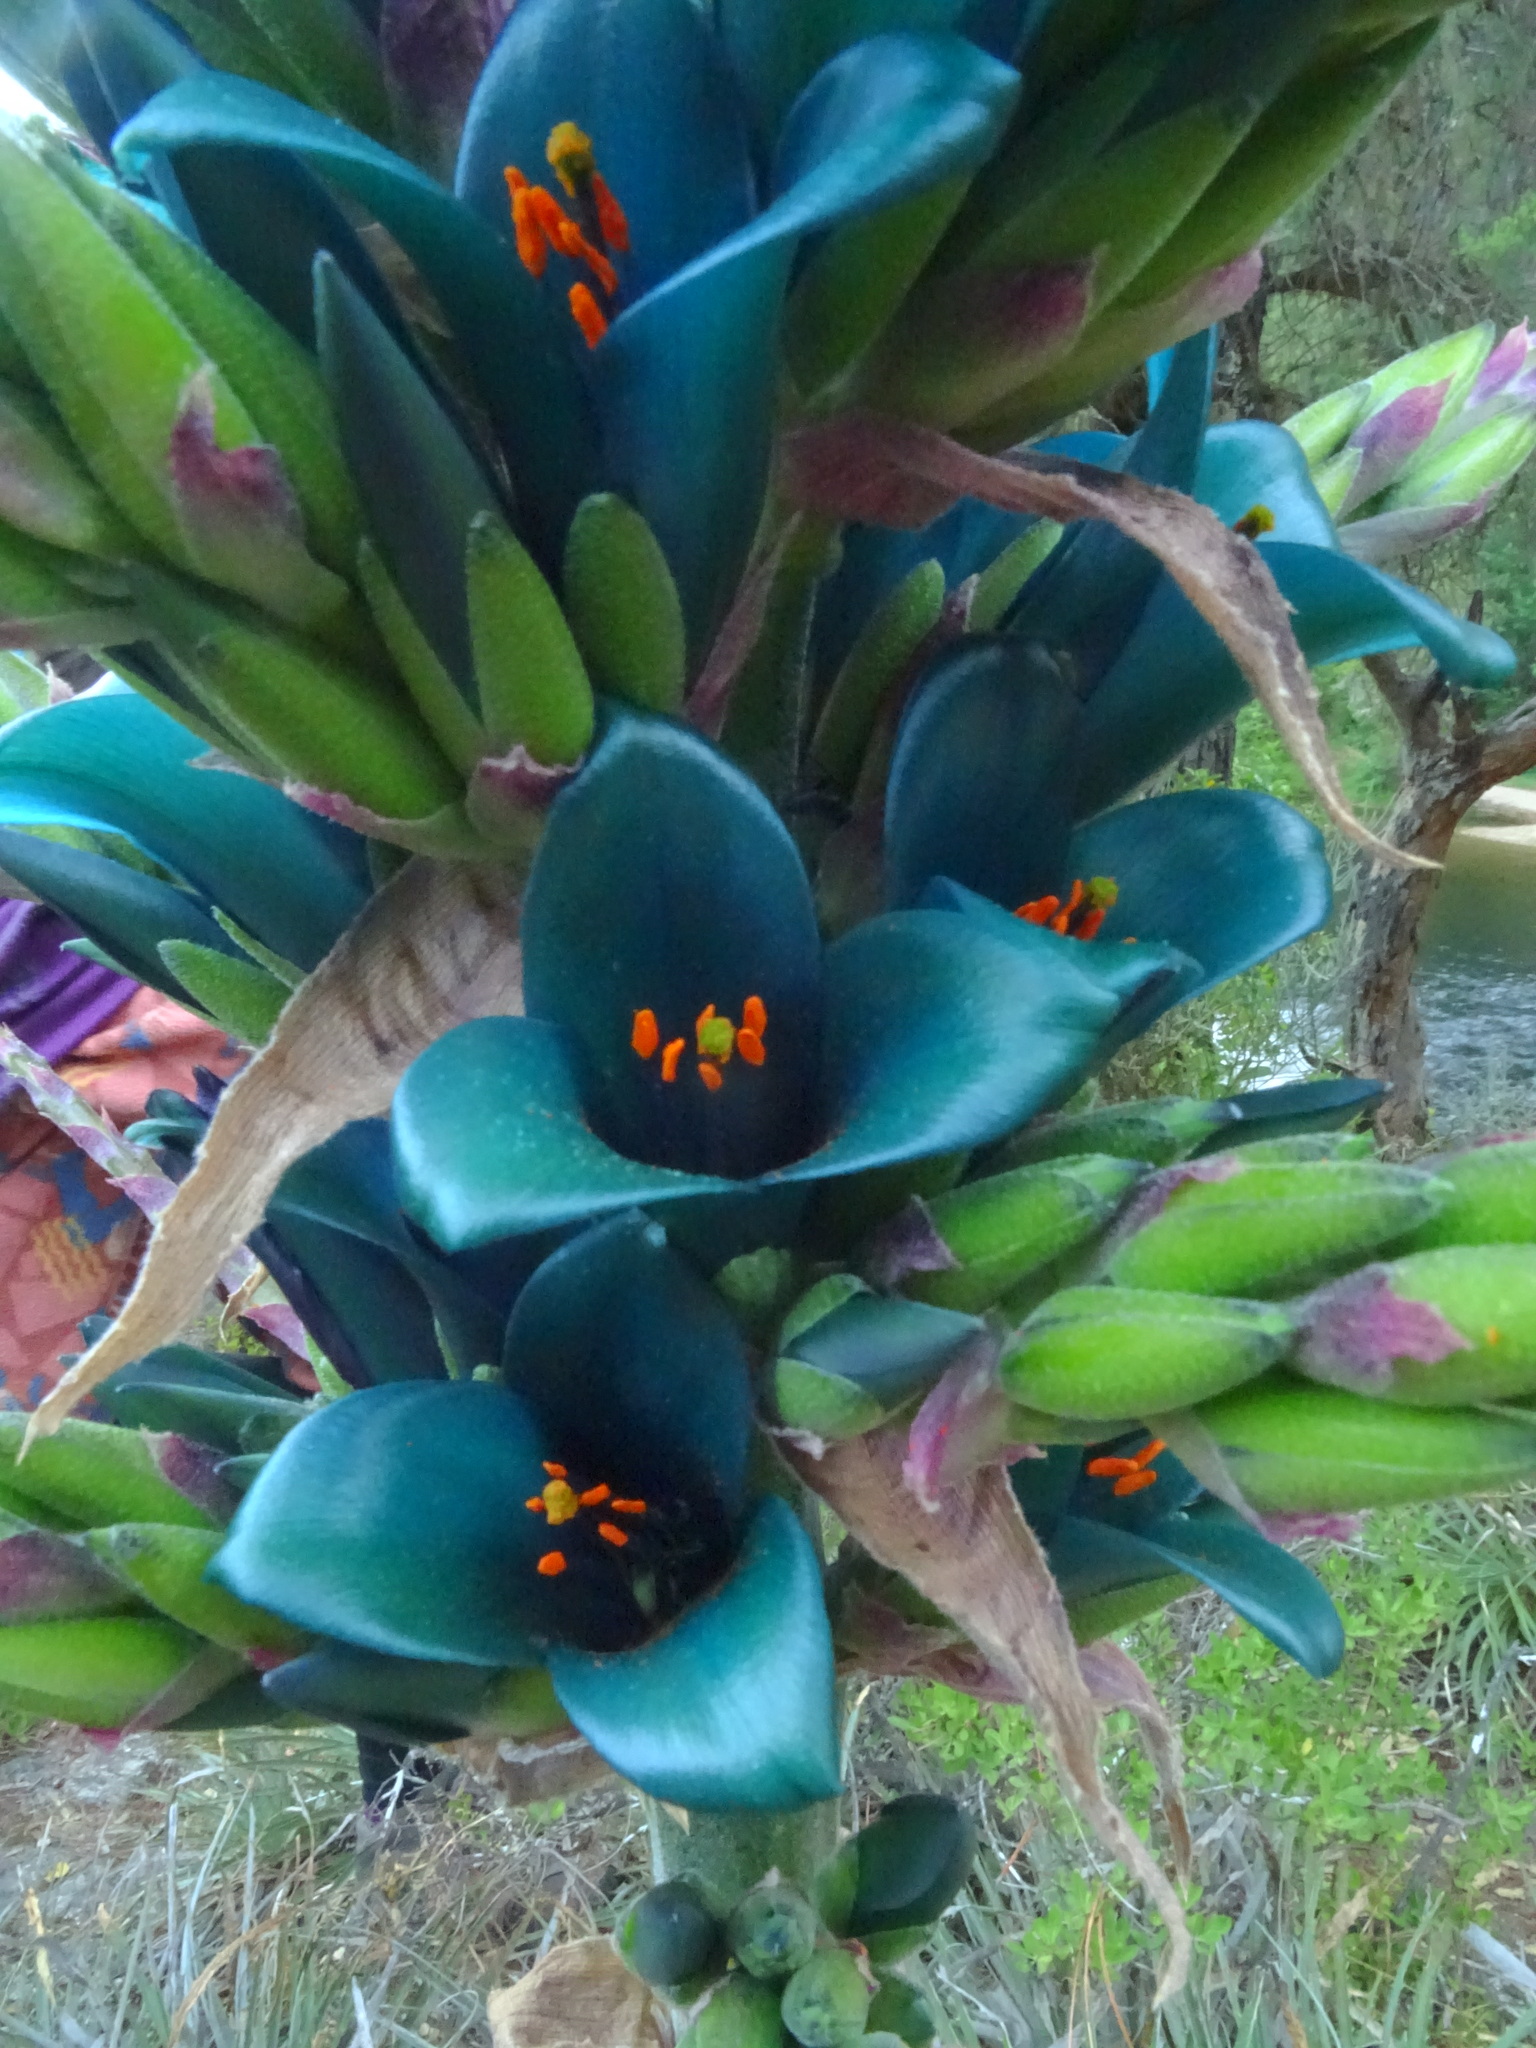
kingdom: Plantae
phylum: Tracheophyta
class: Liliopsida
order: Poales
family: Bromeliaceae
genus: Puya
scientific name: Puya alpestris
